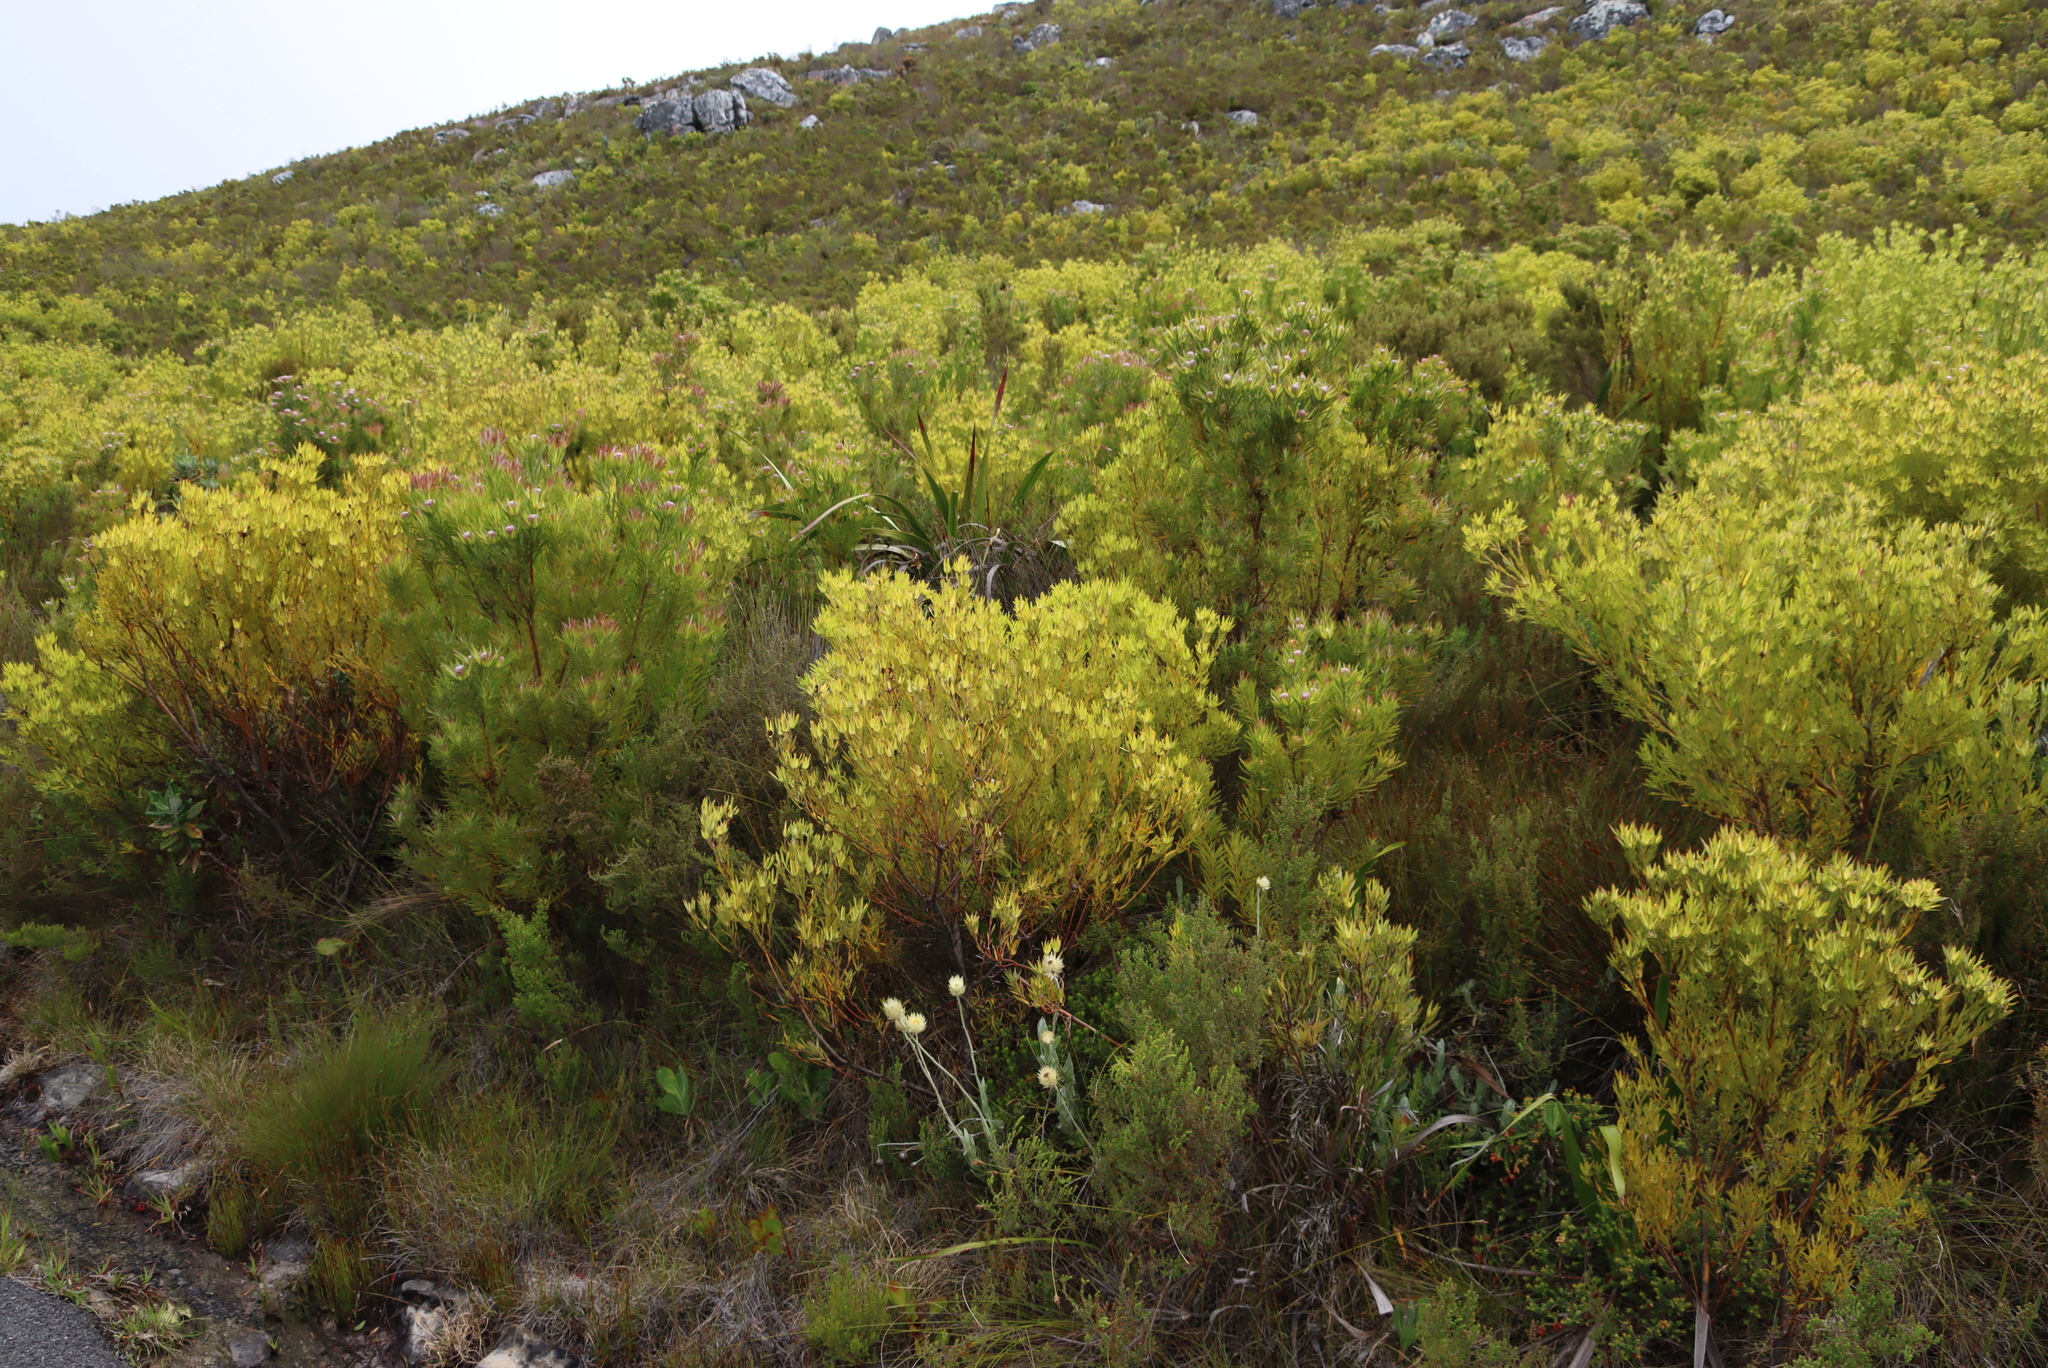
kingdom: Plantae
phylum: Tracheophyta
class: Magnoliopsida
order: Proteales
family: Proteaceae
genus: Leucadendron
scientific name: Leucadendron xanthoconus
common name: Sickle-leaf conebush
